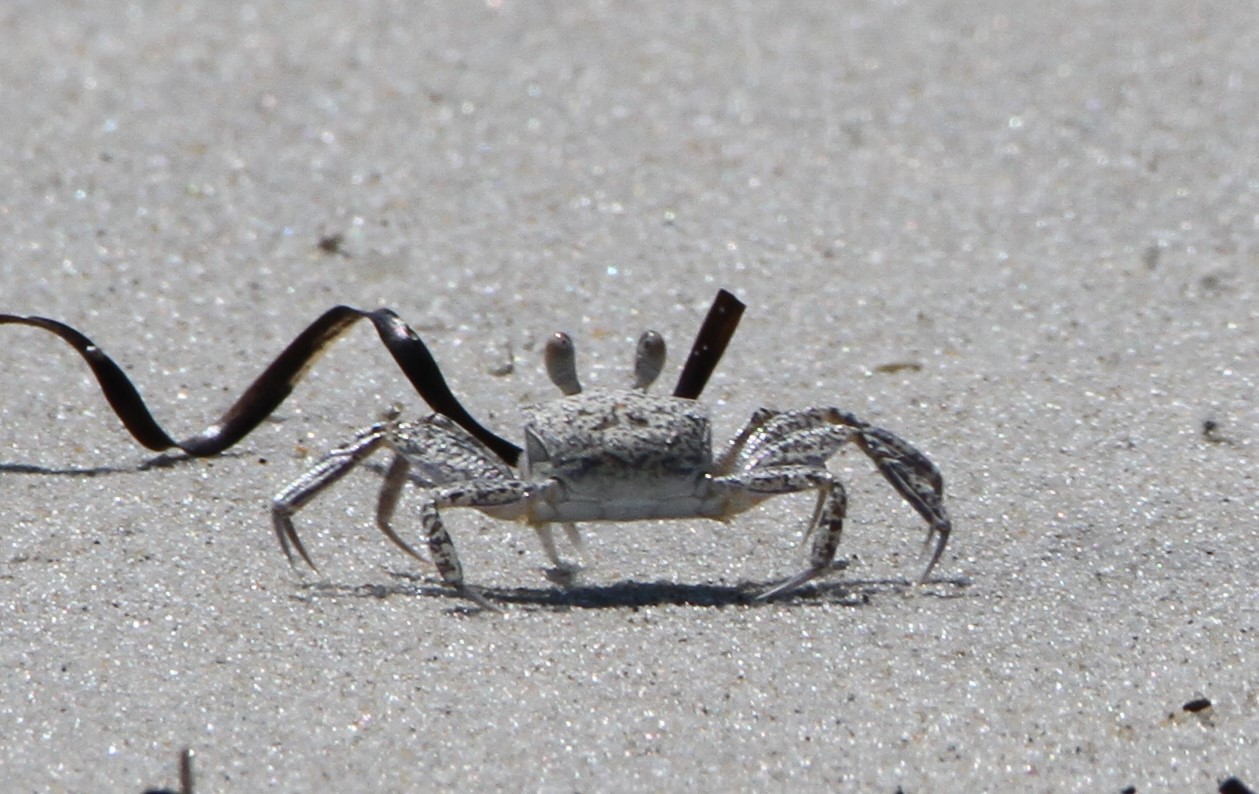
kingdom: Animalia
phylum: Arthropoda
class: Malacostraca
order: Decapoda
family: Ocypodidae
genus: Ocypode
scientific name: Ocypode quadrata
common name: Ghost crab
